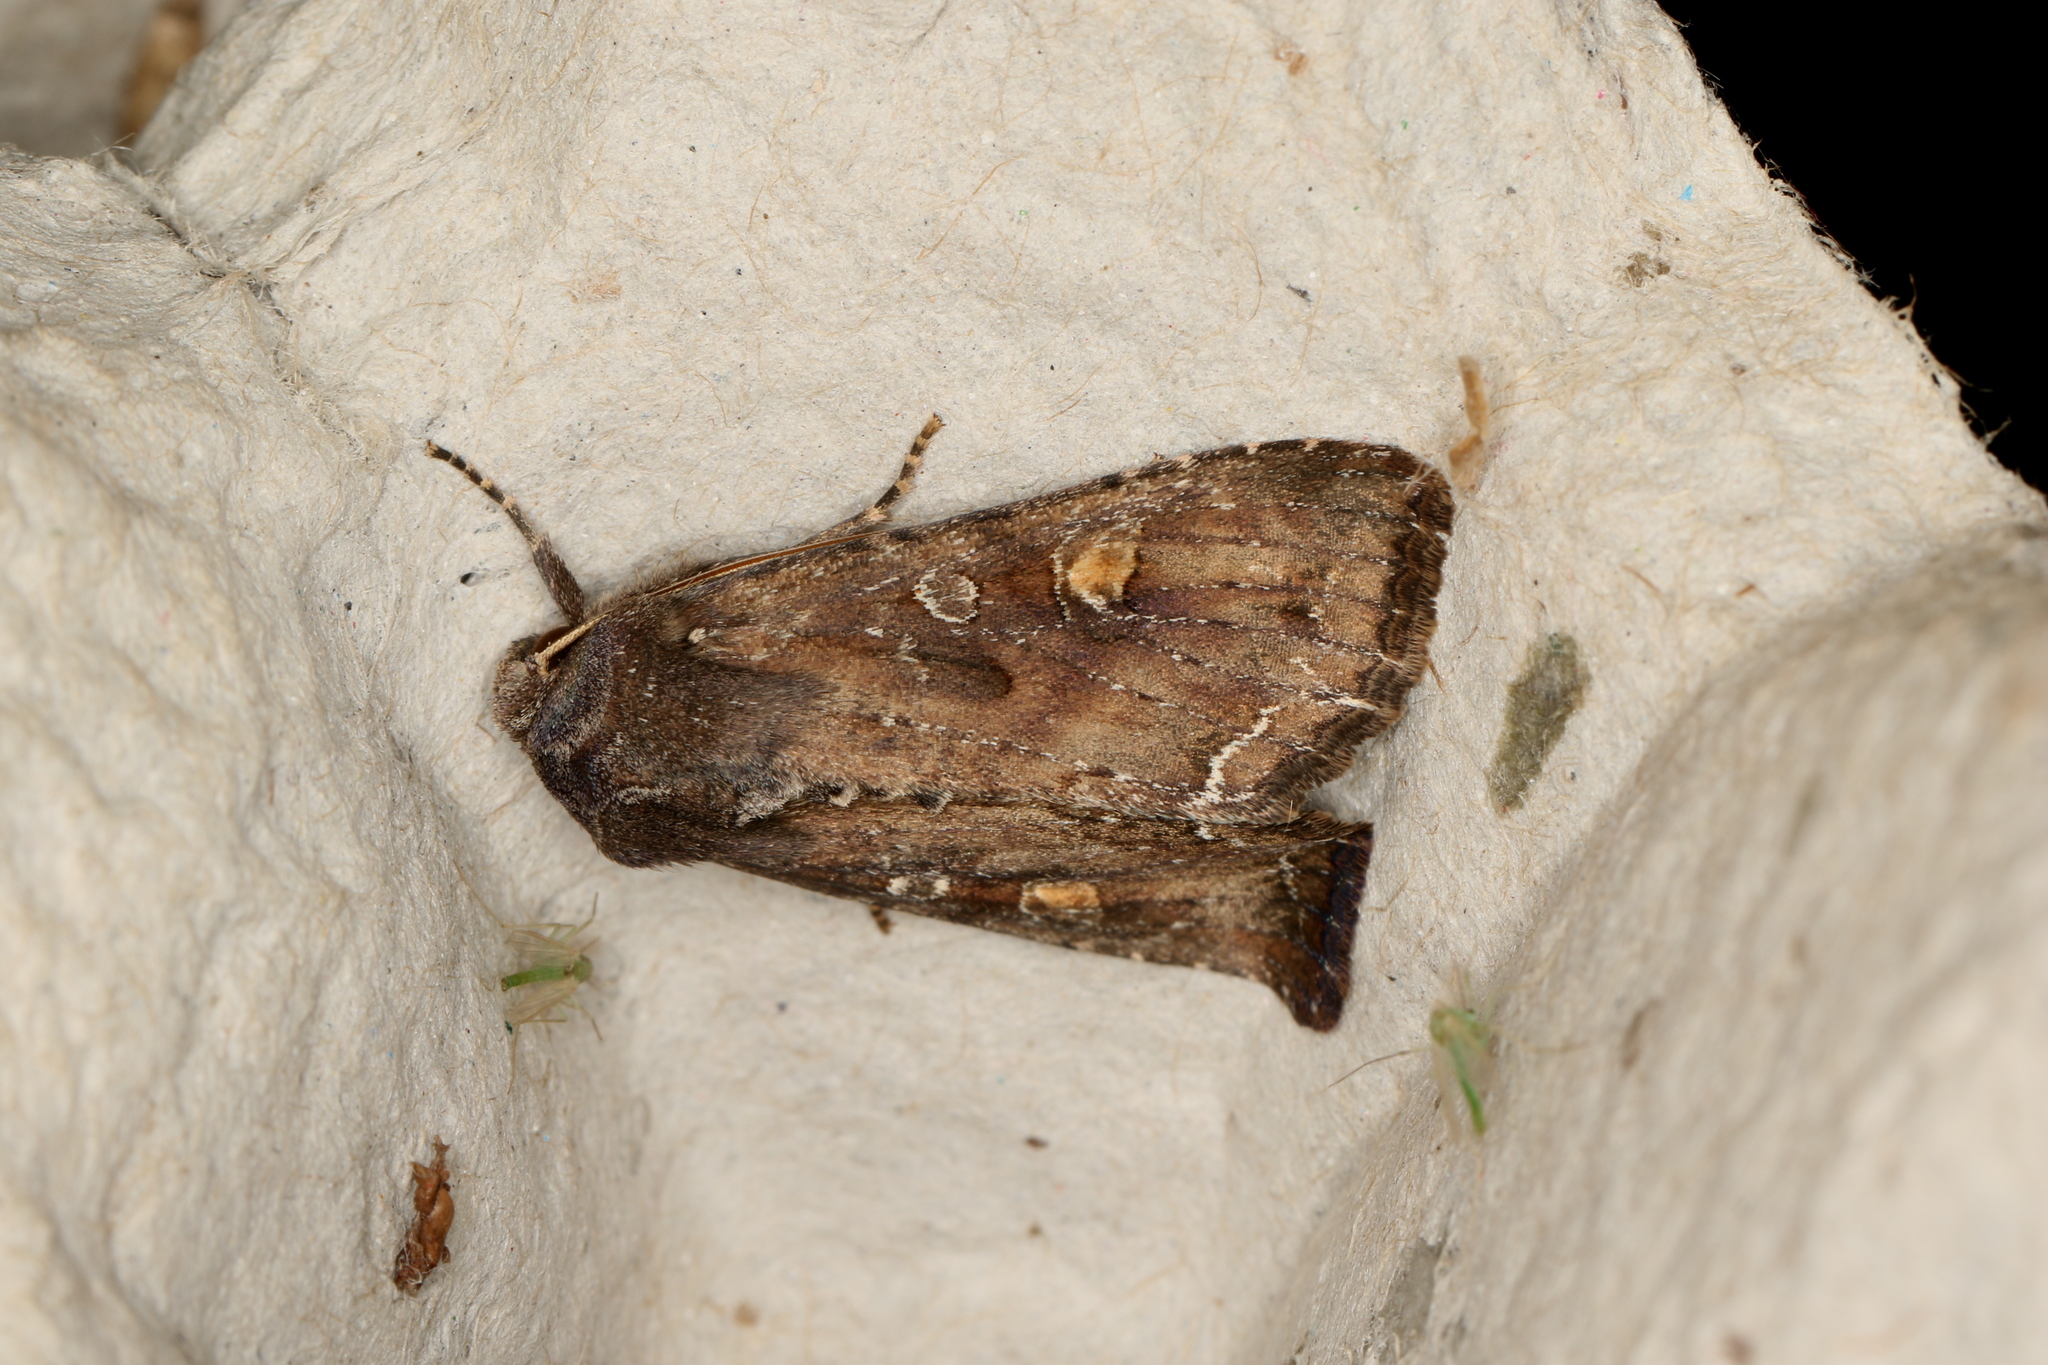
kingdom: Animalia
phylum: Arthropoda
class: Insecta
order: Lepidoptera
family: Noctuidae
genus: Lacanobia
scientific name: Lacanobia oleracea
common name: Bright-line brown-eye
